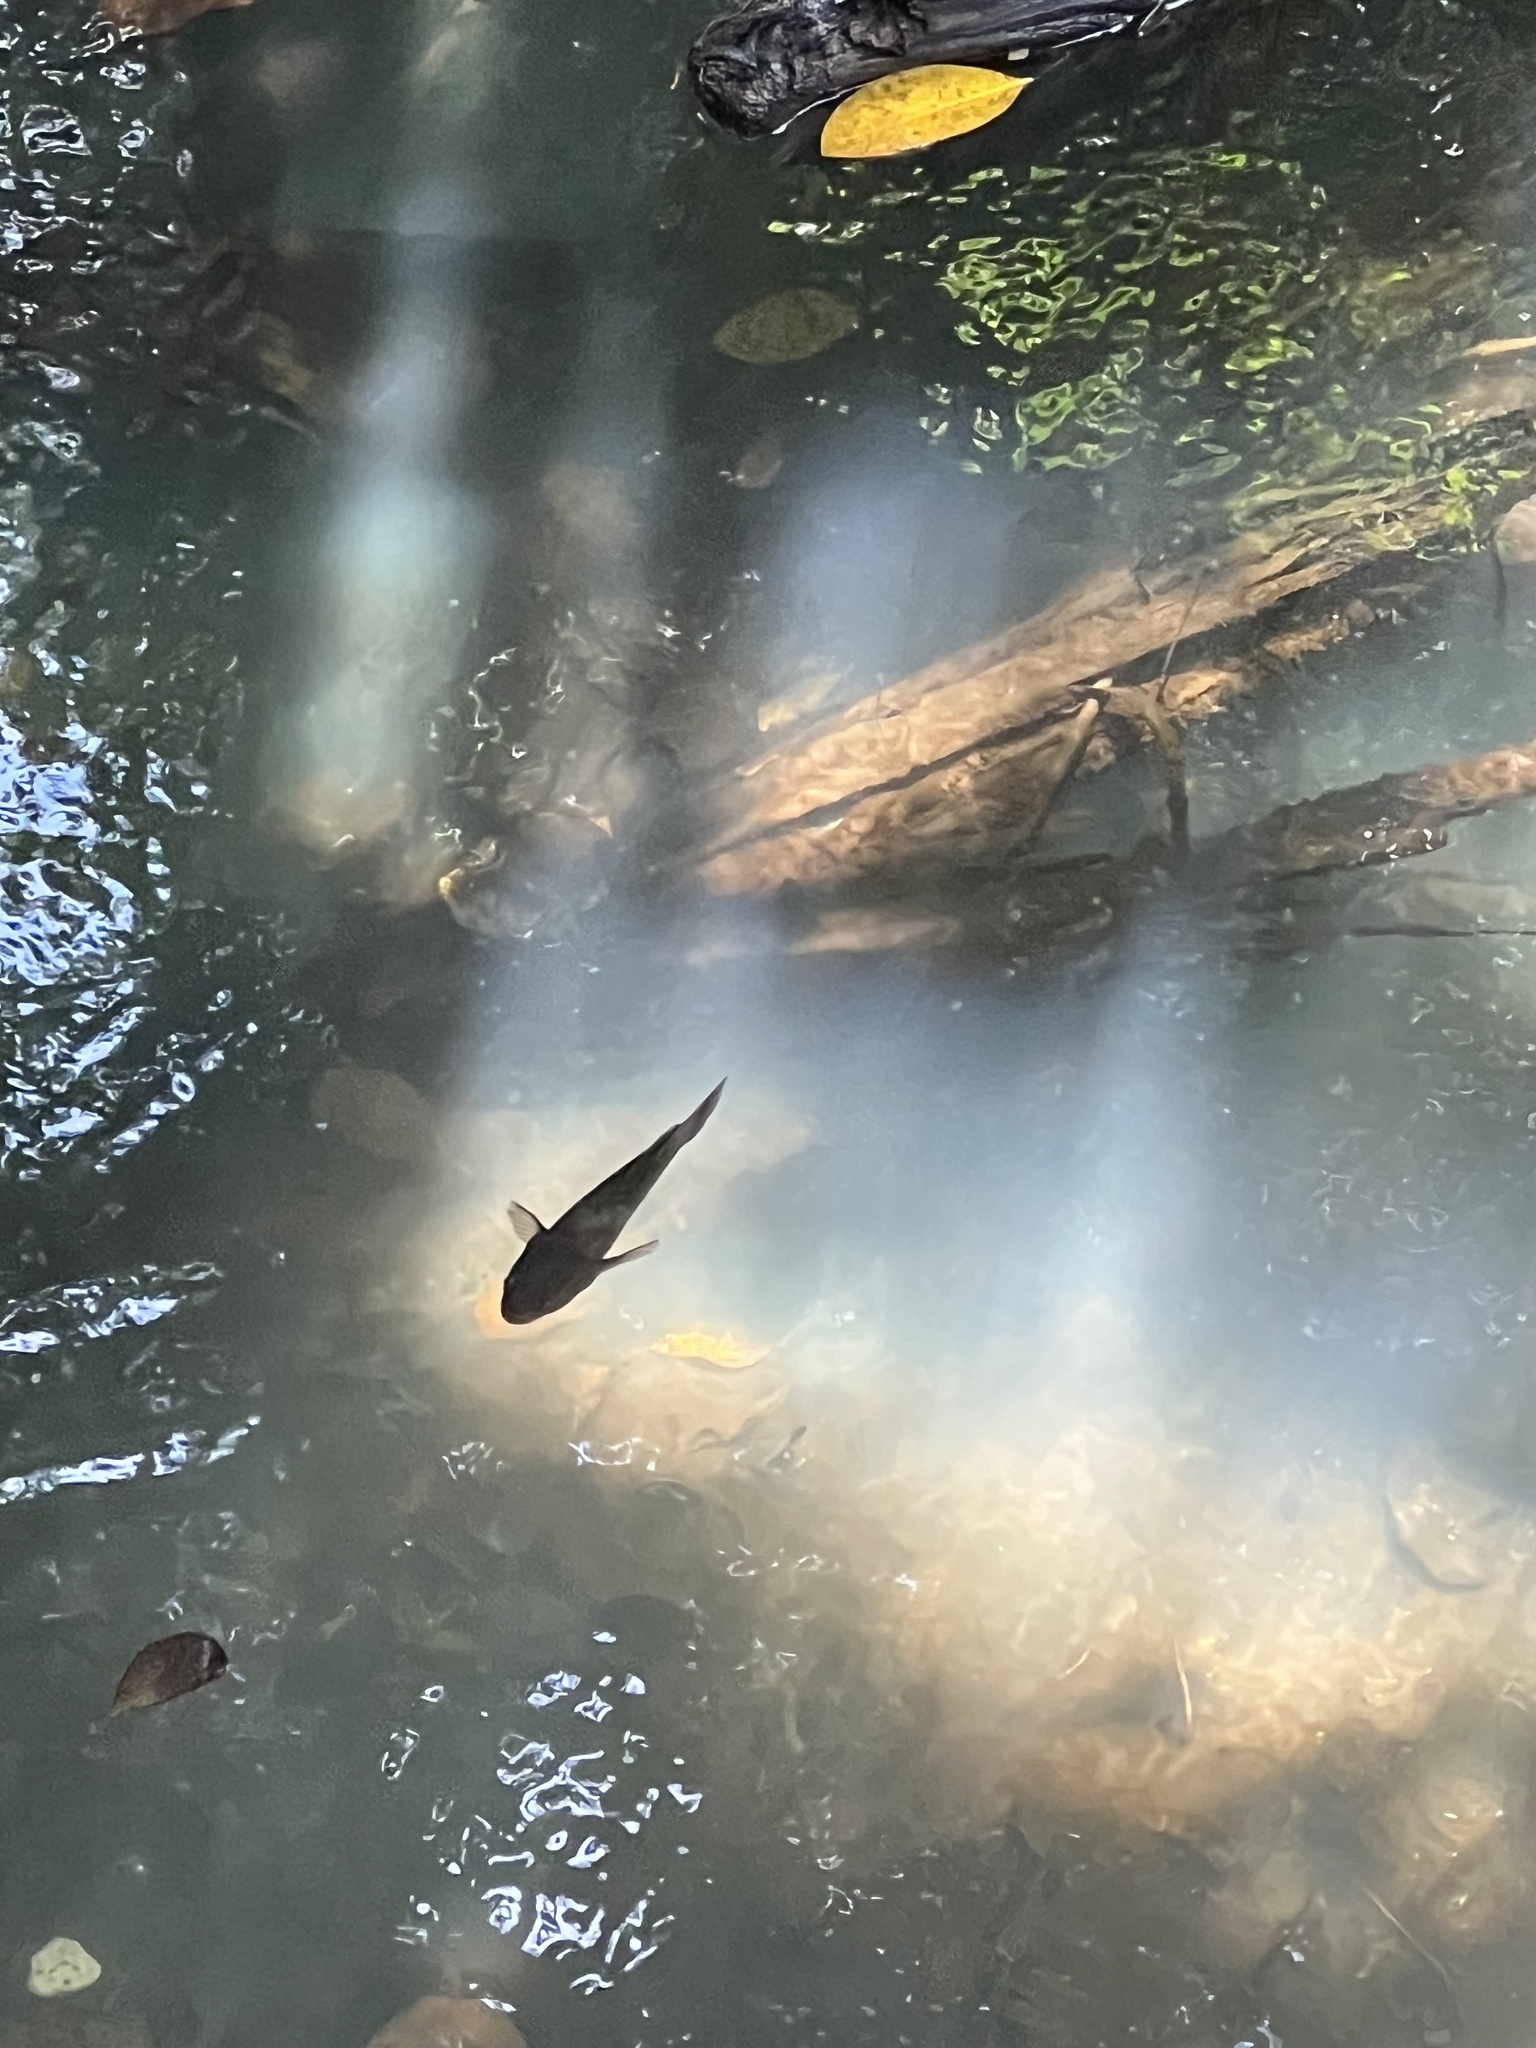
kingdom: Animalia
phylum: Chordata
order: Perciformes
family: Eleotridae
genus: Ophiocara
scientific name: Ophiocara porocephala
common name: Spangled gudgeon
